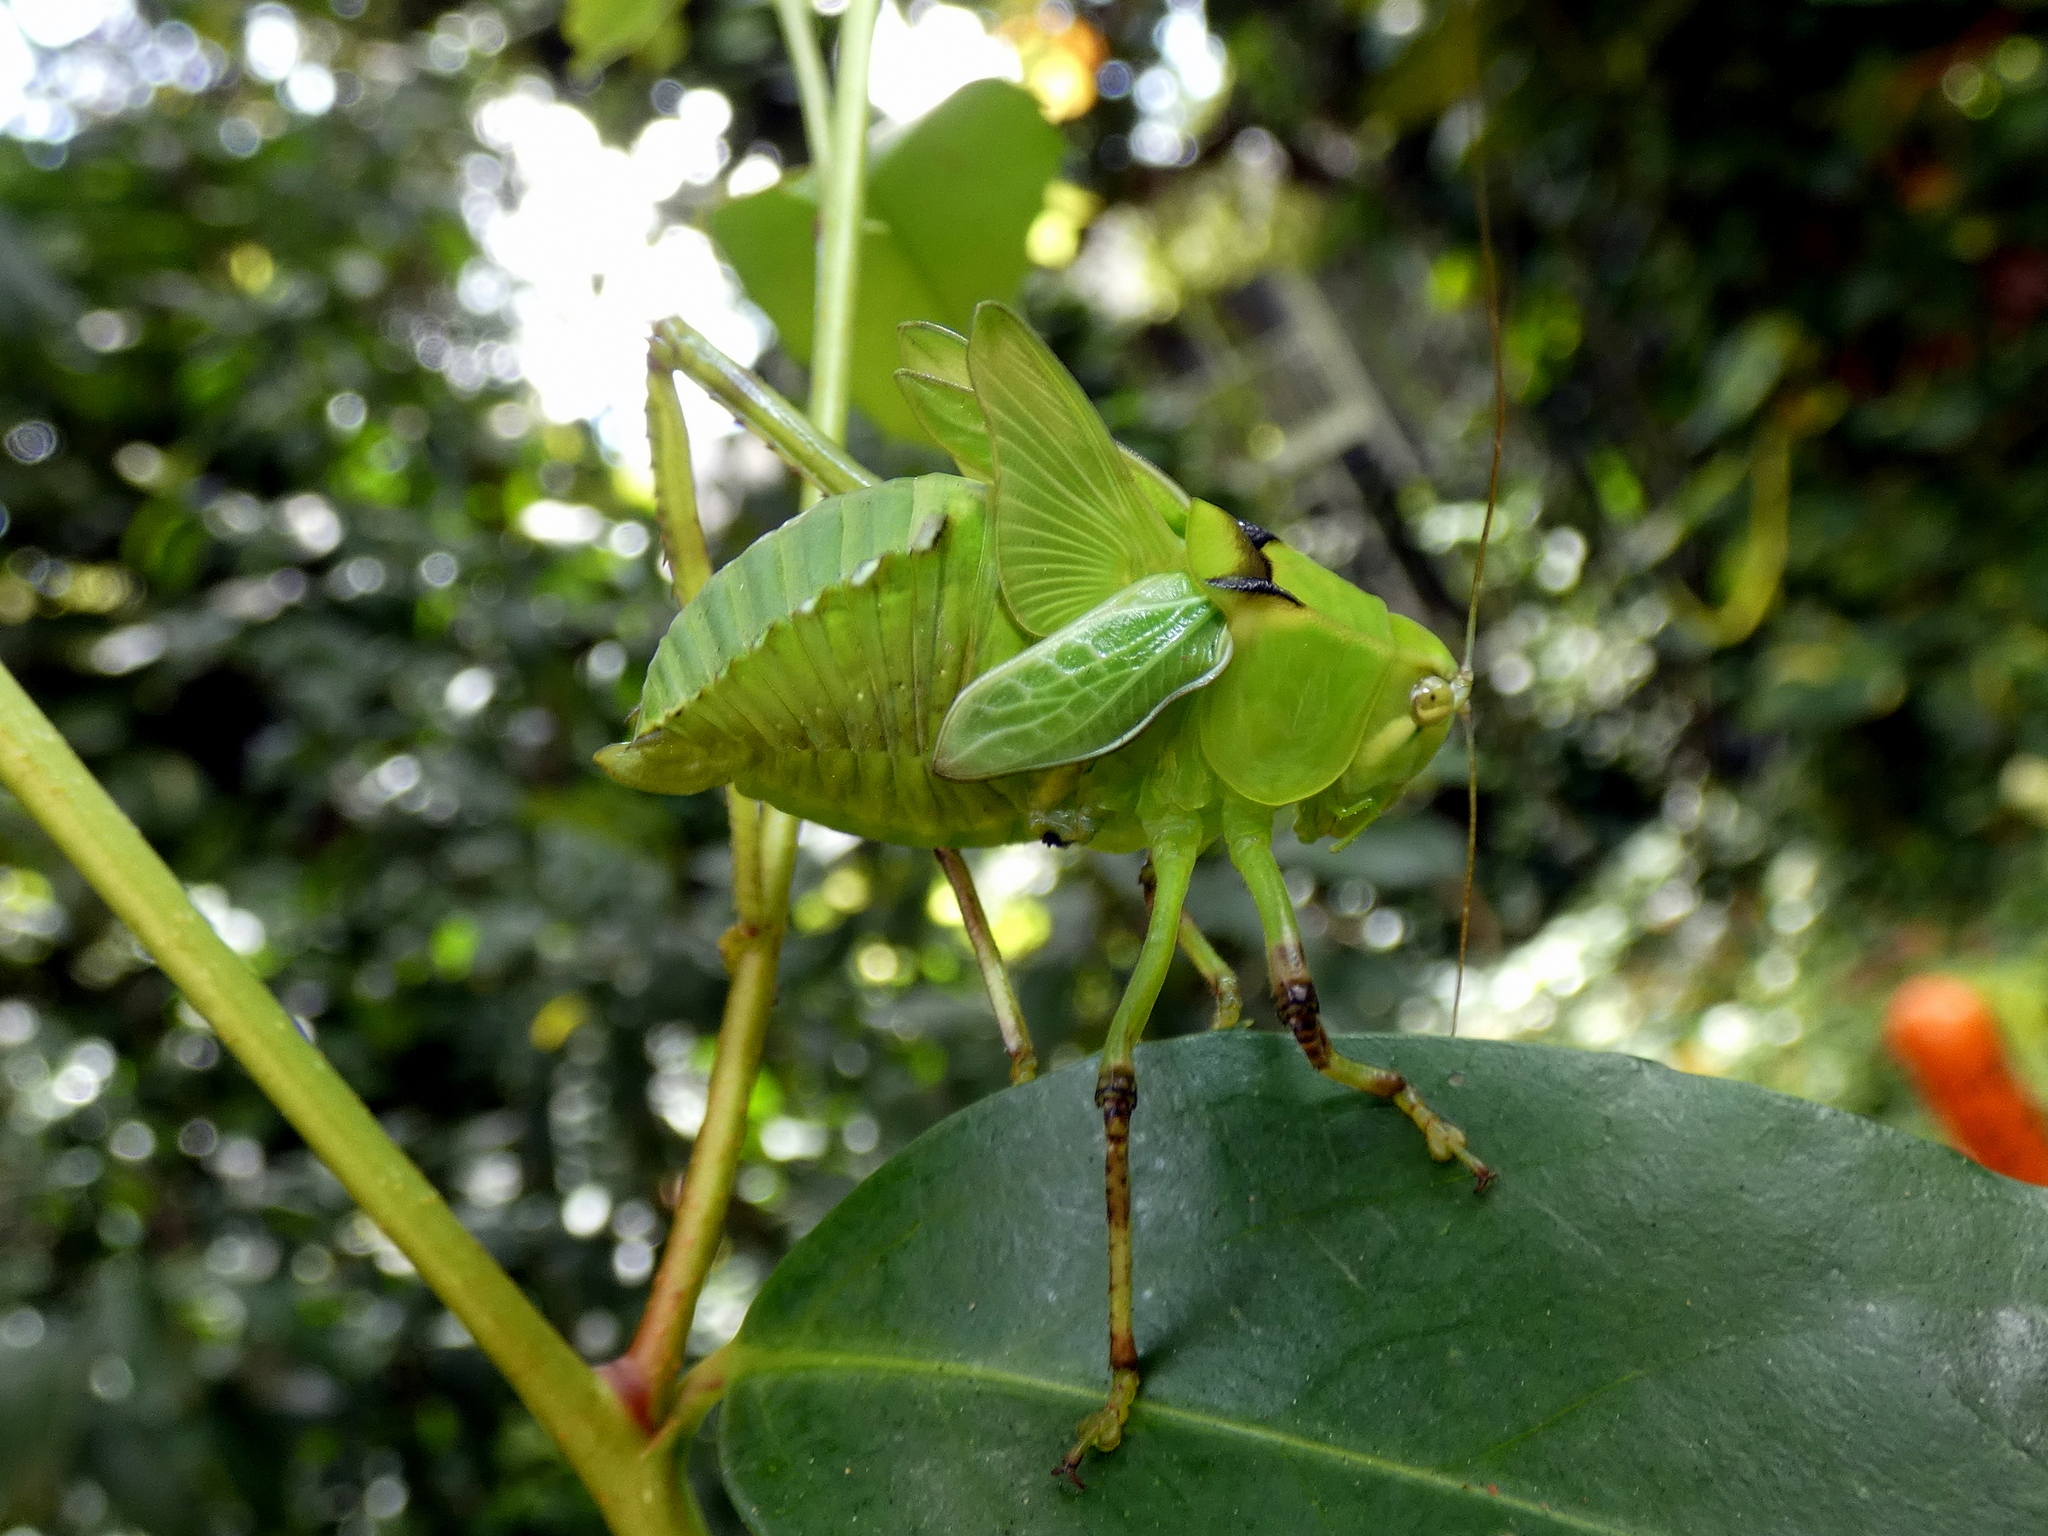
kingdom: Animalia
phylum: Arthropoda
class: Insecta
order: Orthoptera
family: Tettigoniidae
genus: Stilpnochlora
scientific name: Stilpnochlora couloniana
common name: Giant katydid
